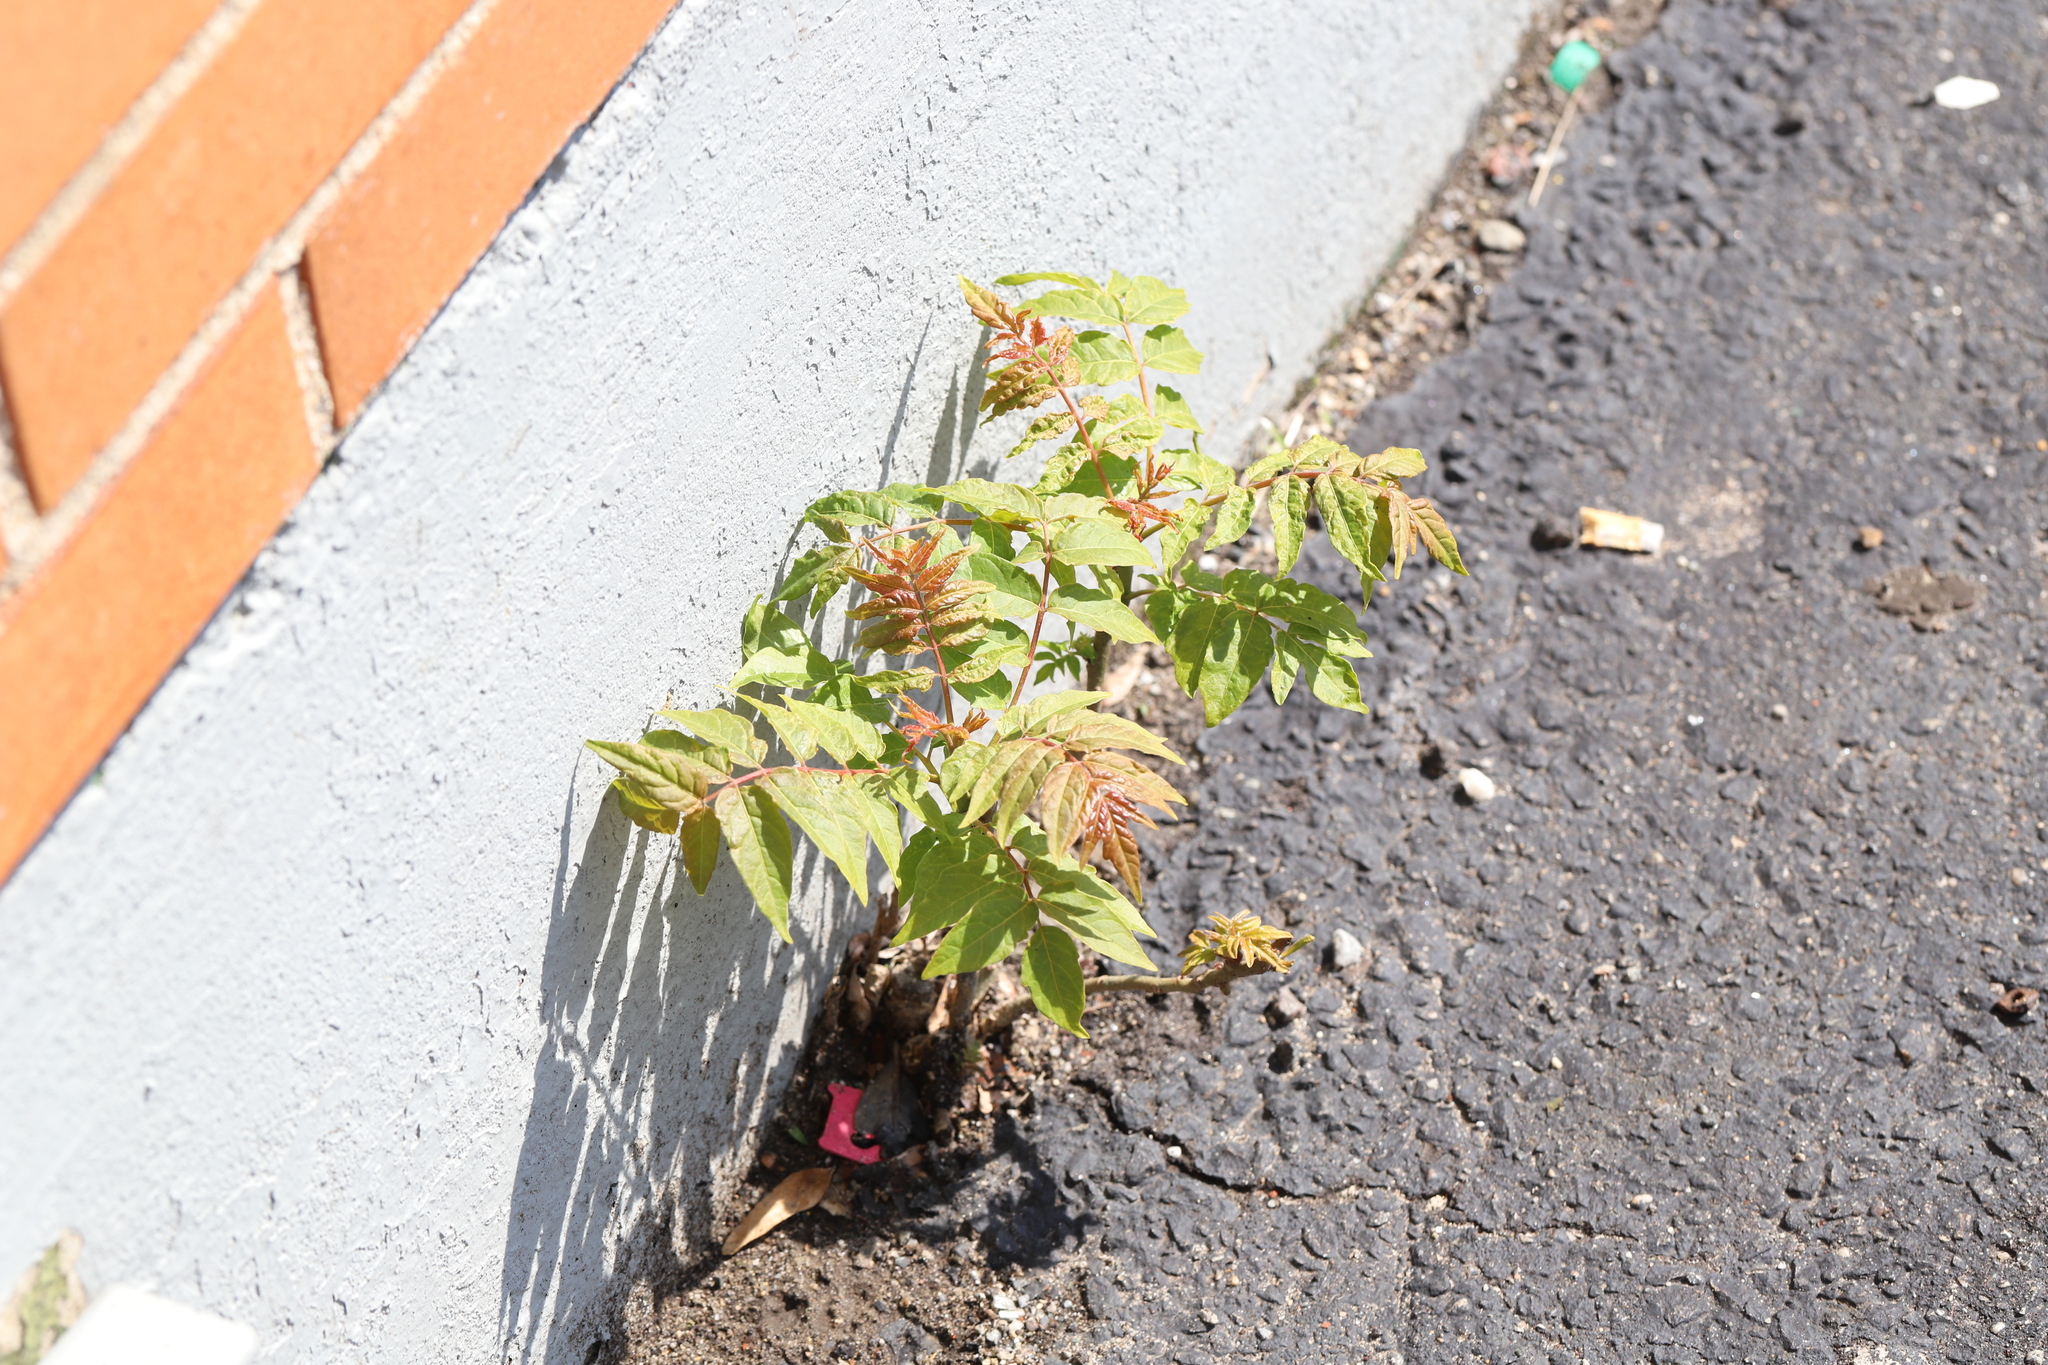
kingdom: Plantae
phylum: Tracheophyta
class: Magnoliopsida
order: Sapindales
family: Simaroubaceae
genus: Ailanthus
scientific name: Ailanthus altissima
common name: Tree-of-heaven
